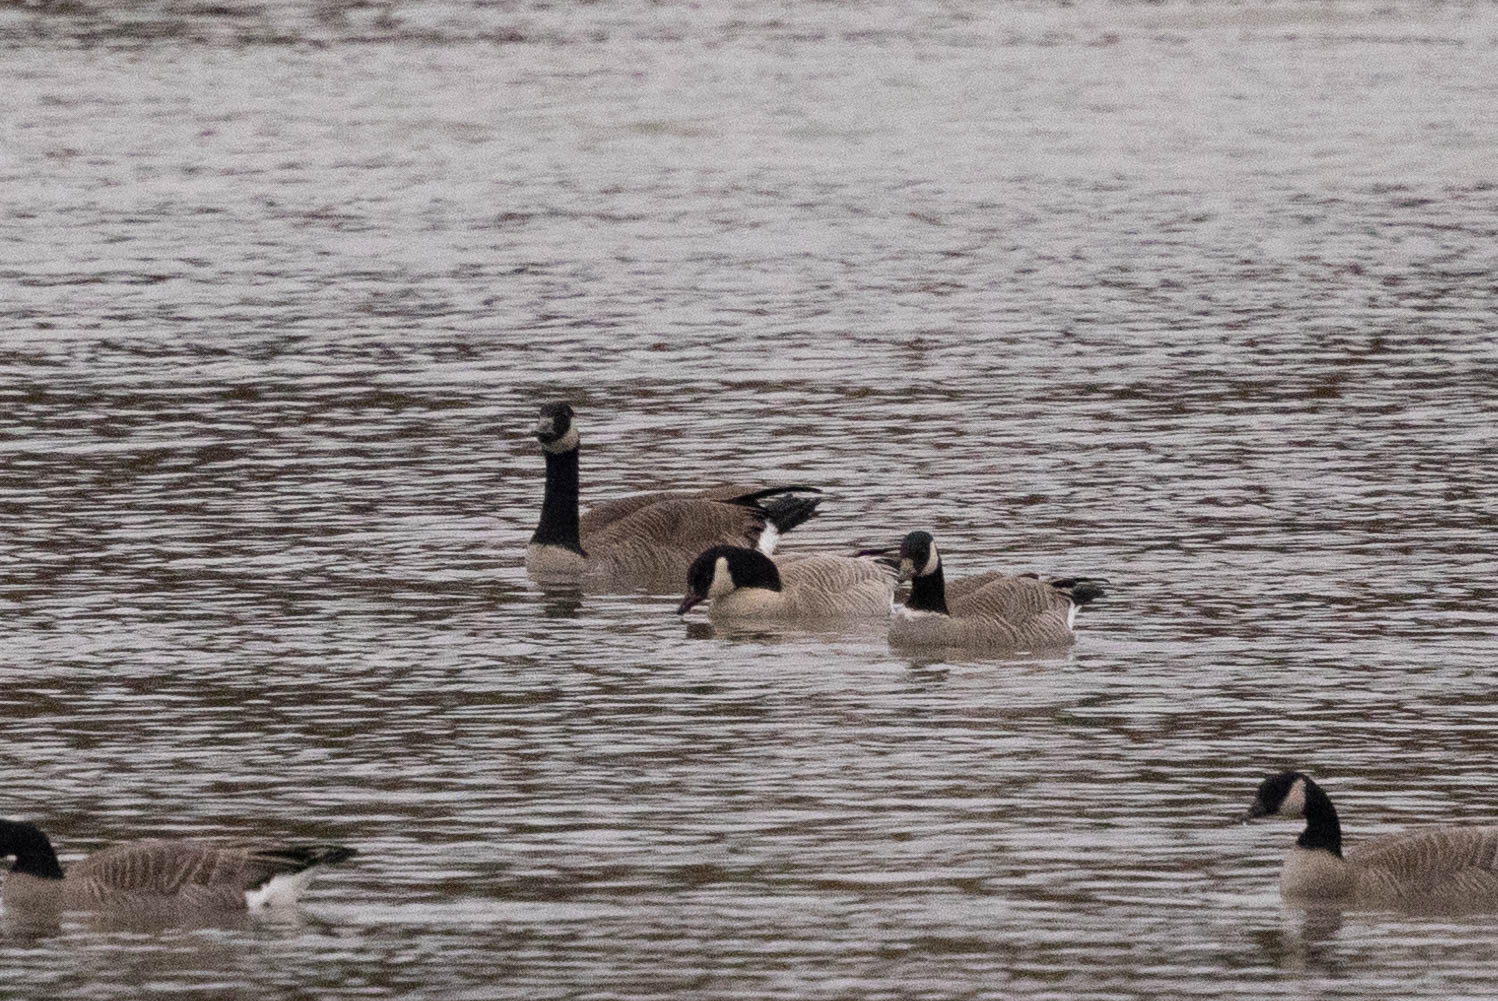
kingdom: Animalia
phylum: Chordata
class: Aves
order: Anseriformes
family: Anatidae
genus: Branta
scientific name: Branta hutchinsii
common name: Cackling goose
